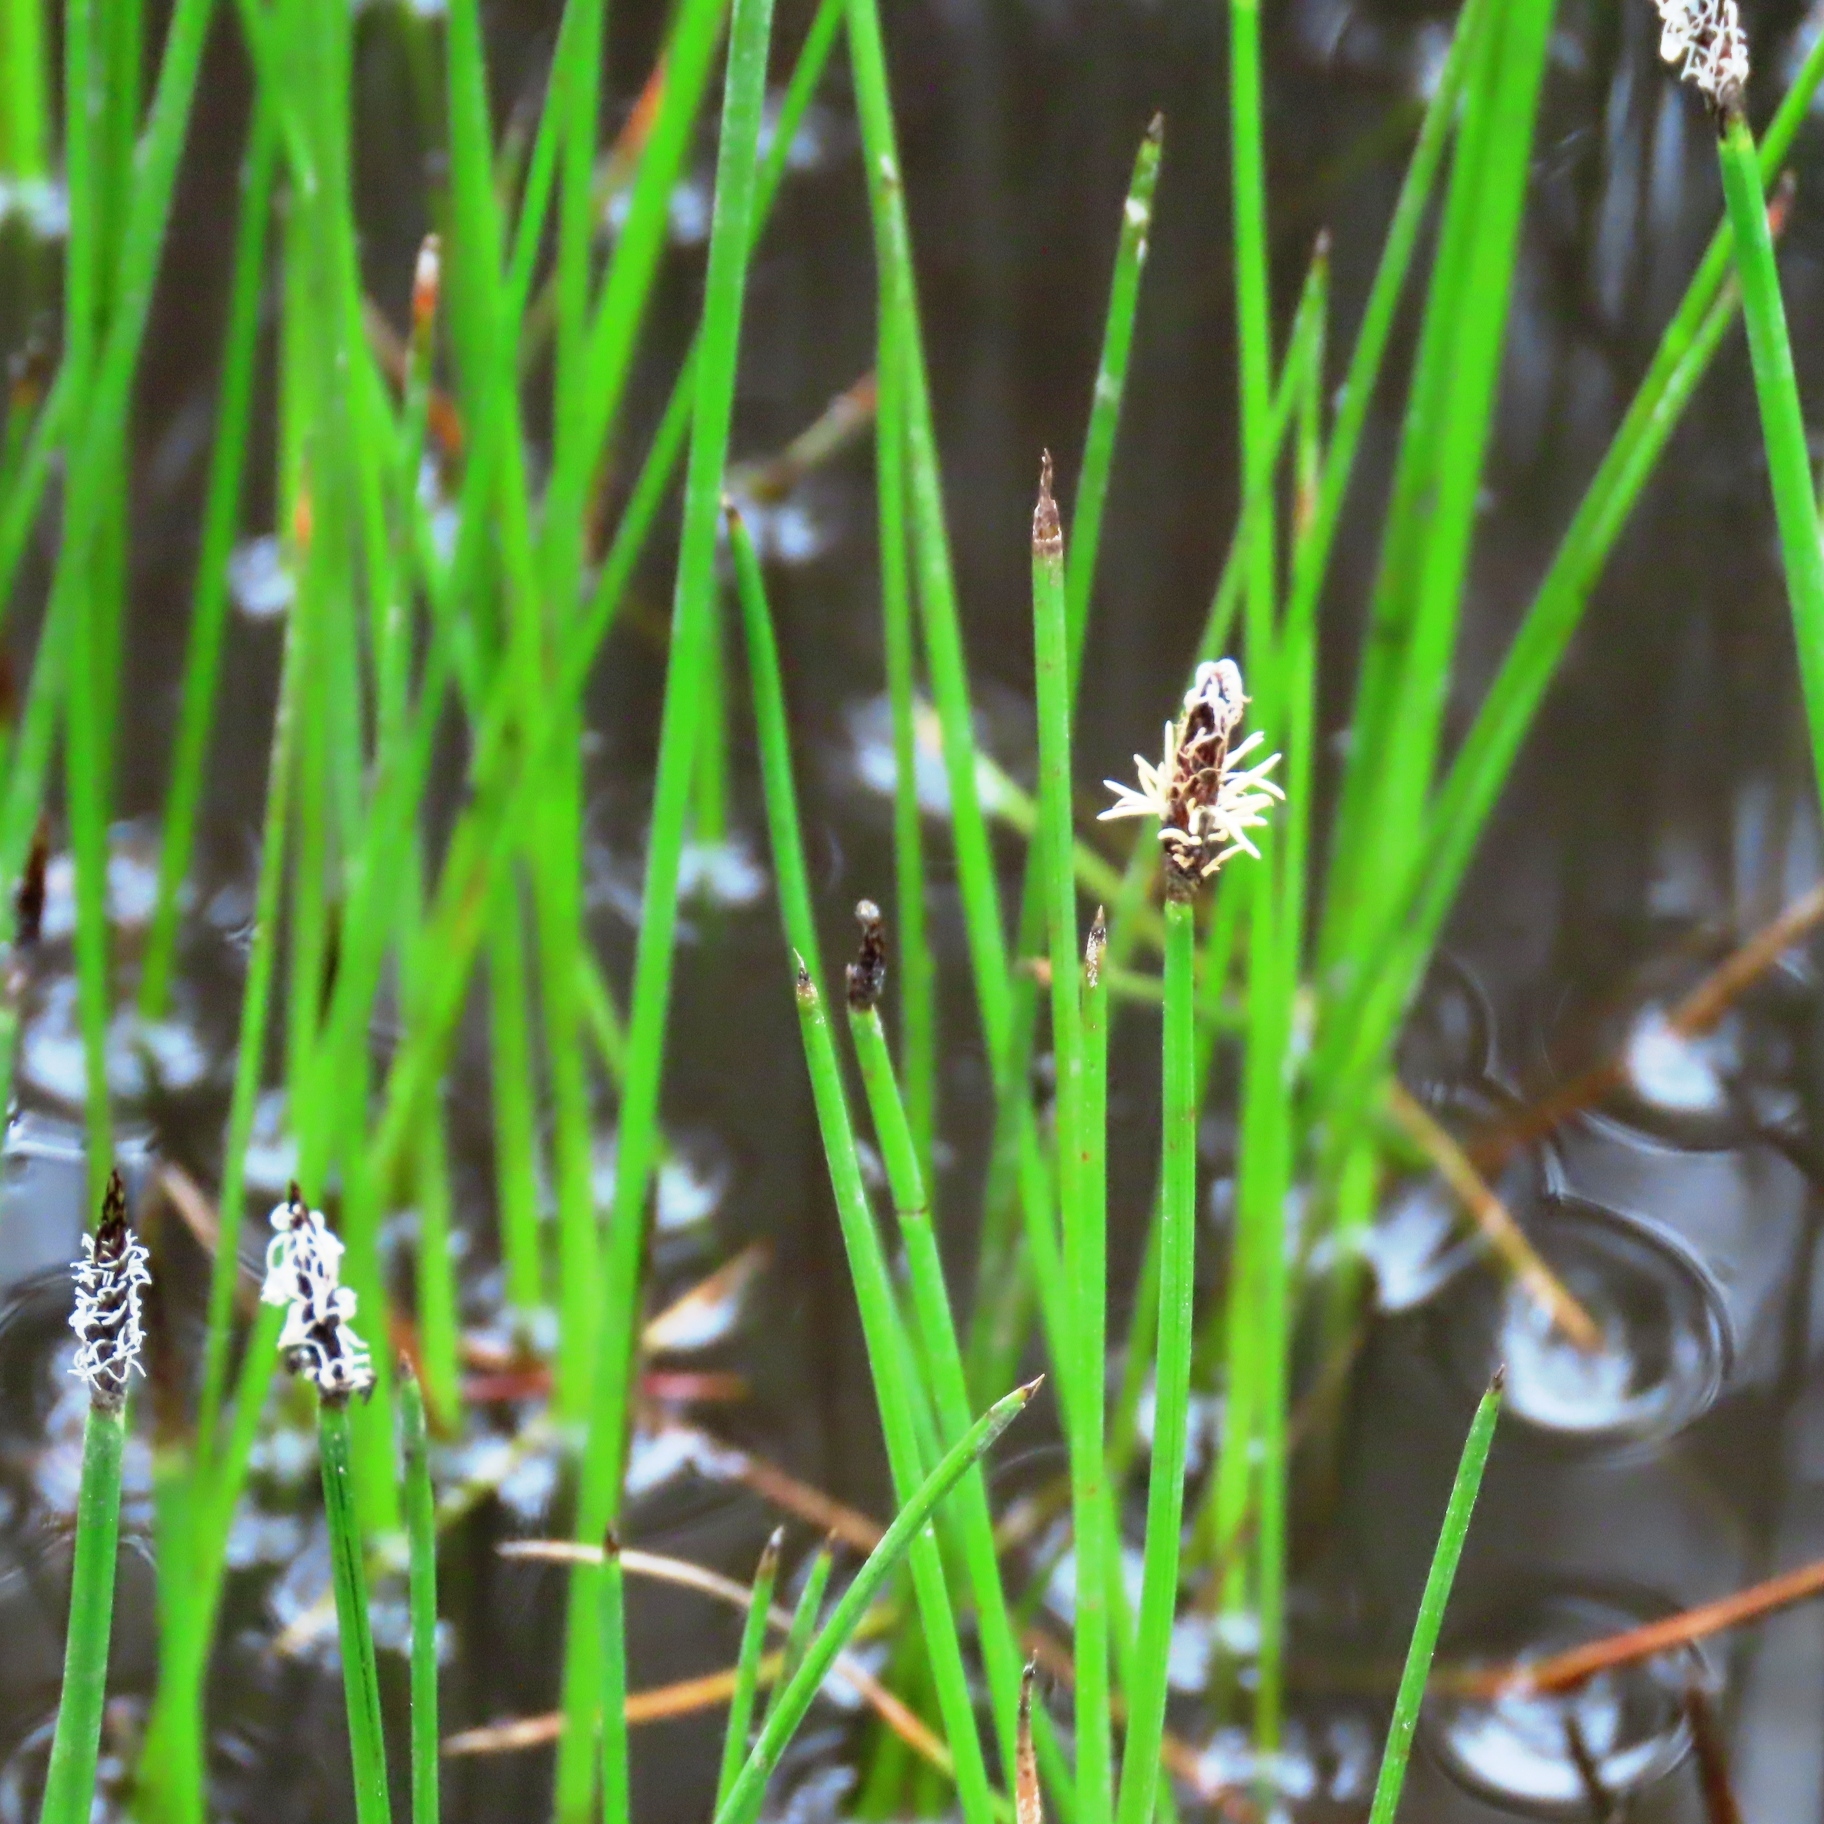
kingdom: Plantae
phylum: Tracheophyta
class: Liliopsida
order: Poales
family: Cyperaceae
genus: Eleocharis
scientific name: Eleocharis acuta
